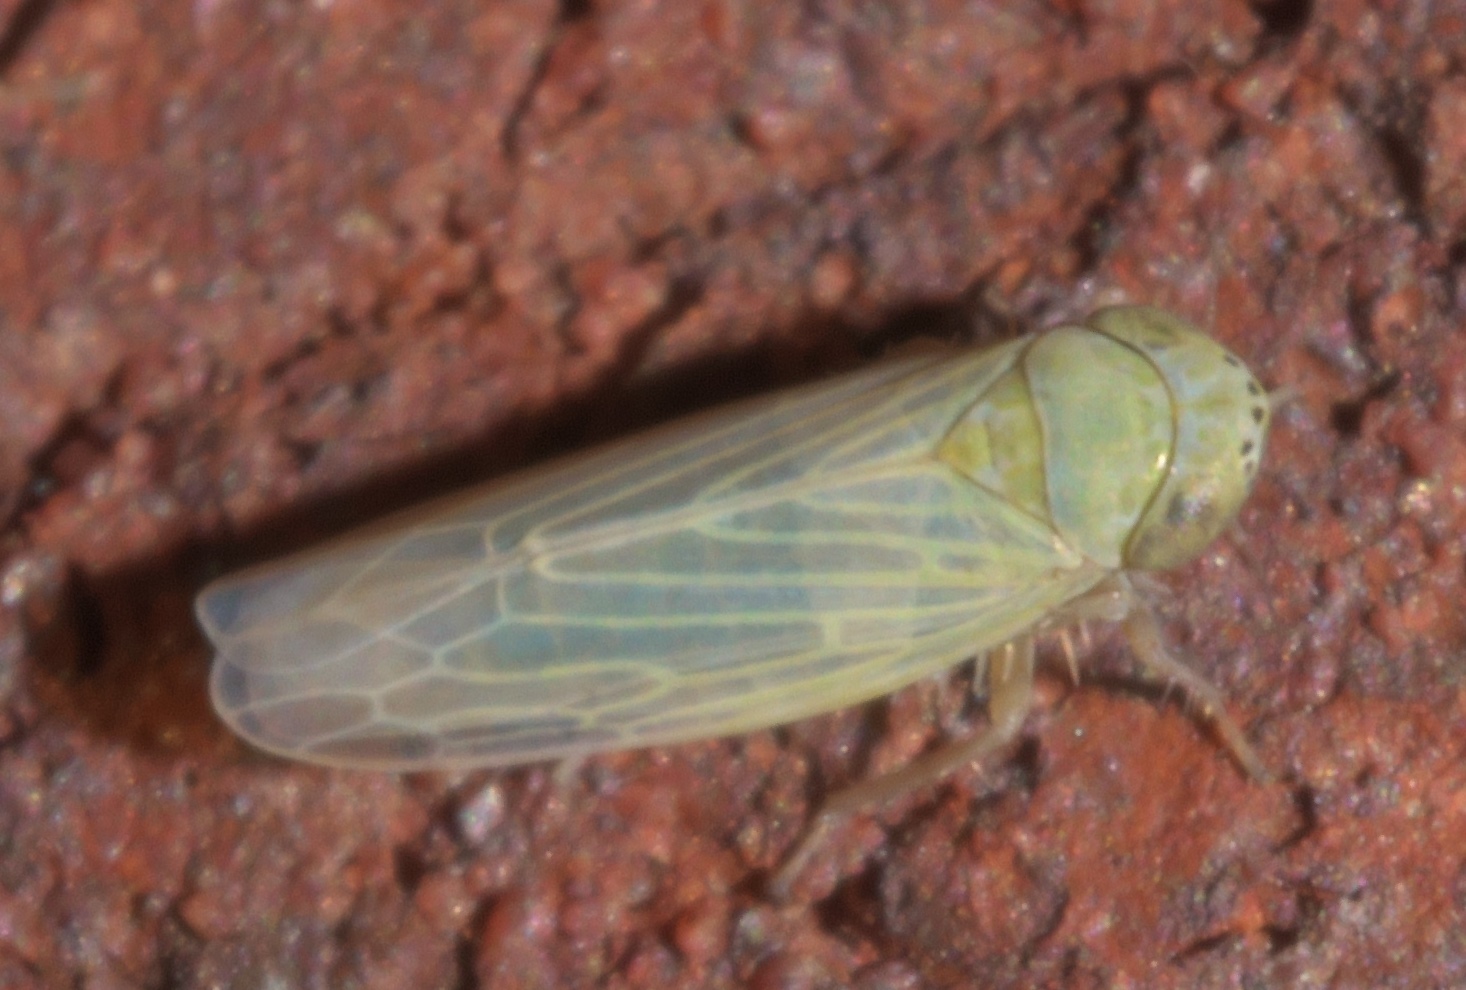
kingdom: Animalia
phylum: Arthropoda
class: Insecta
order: Hemiptera
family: Cicadellidae
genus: Graminella
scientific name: Graminella nigrifrons
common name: Blackfaced leafhopper
